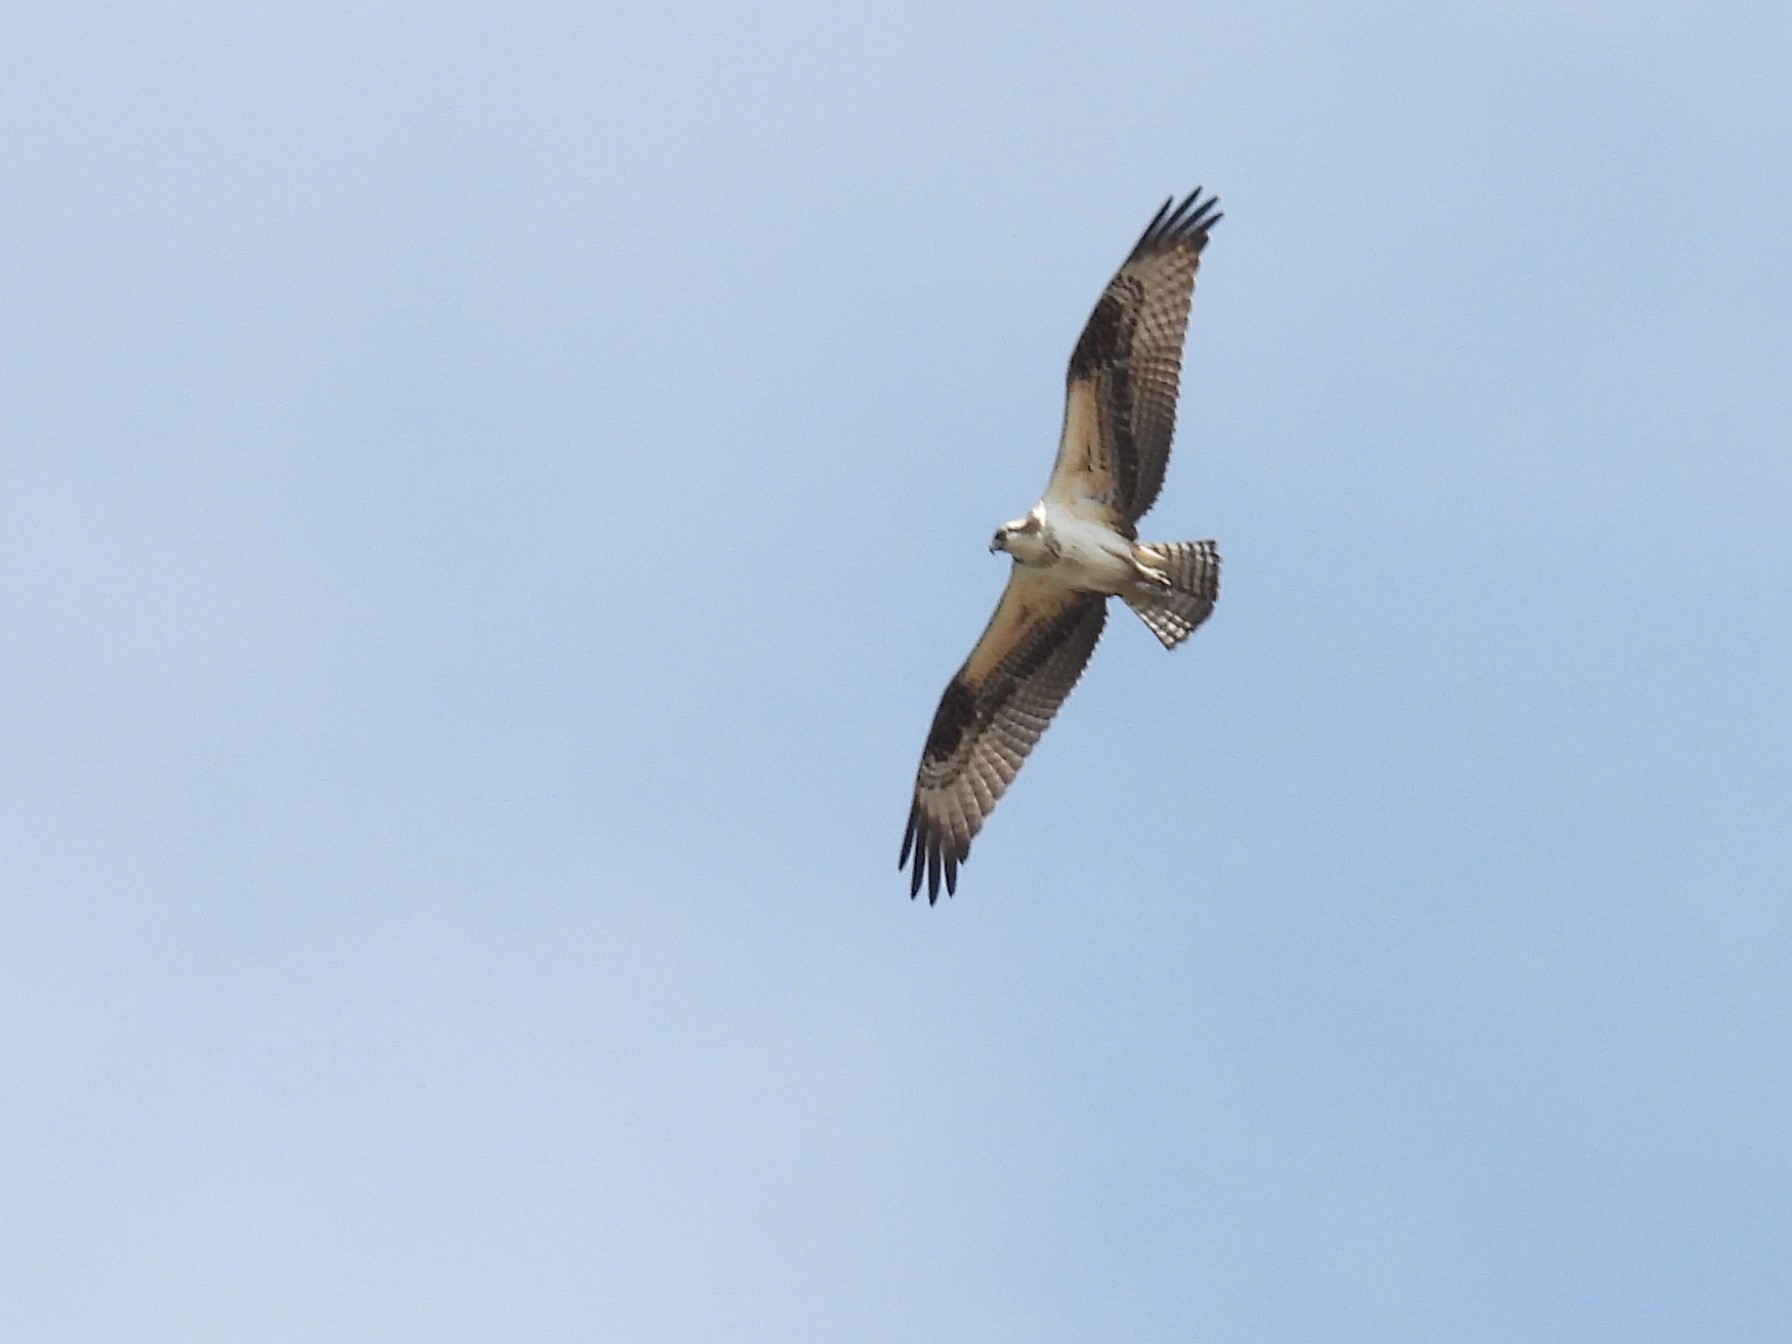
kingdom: Animalia
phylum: Chordata
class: Aves
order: Accipitriformes
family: Pandionidae
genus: Pandion
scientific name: Pandion haliaetus
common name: Osprey
